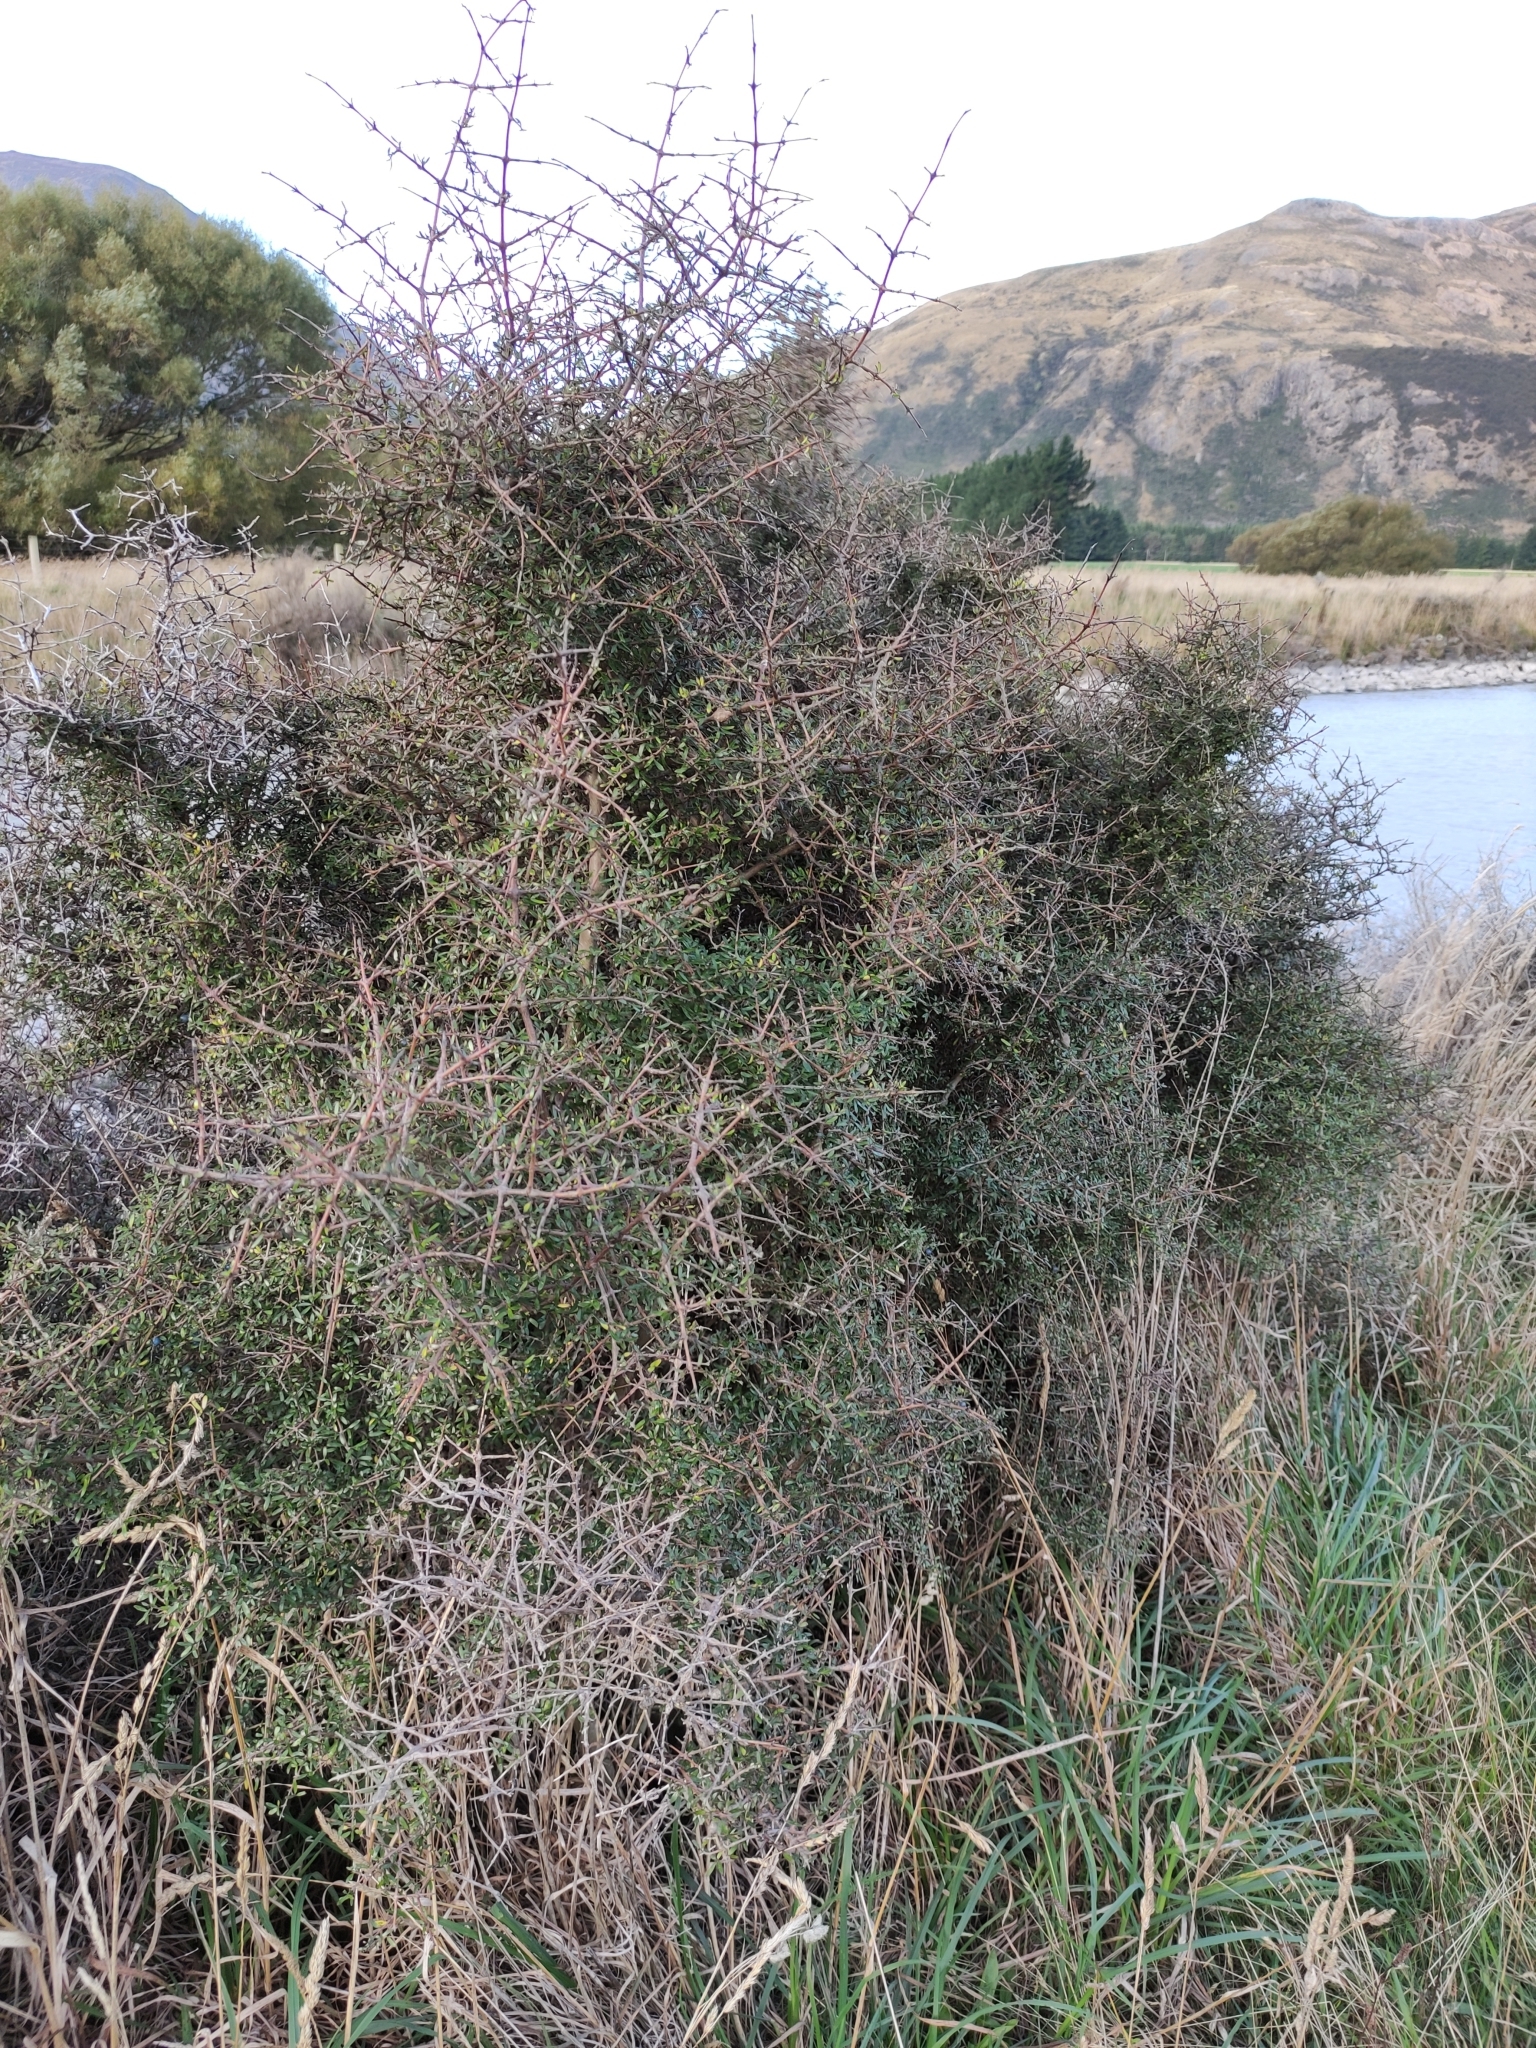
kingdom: Plantae
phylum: Tracheophyta
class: Magnoliopsida
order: Gentianales
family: Rubiaceae
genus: Coprosma
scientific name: Coprosma propinqua
